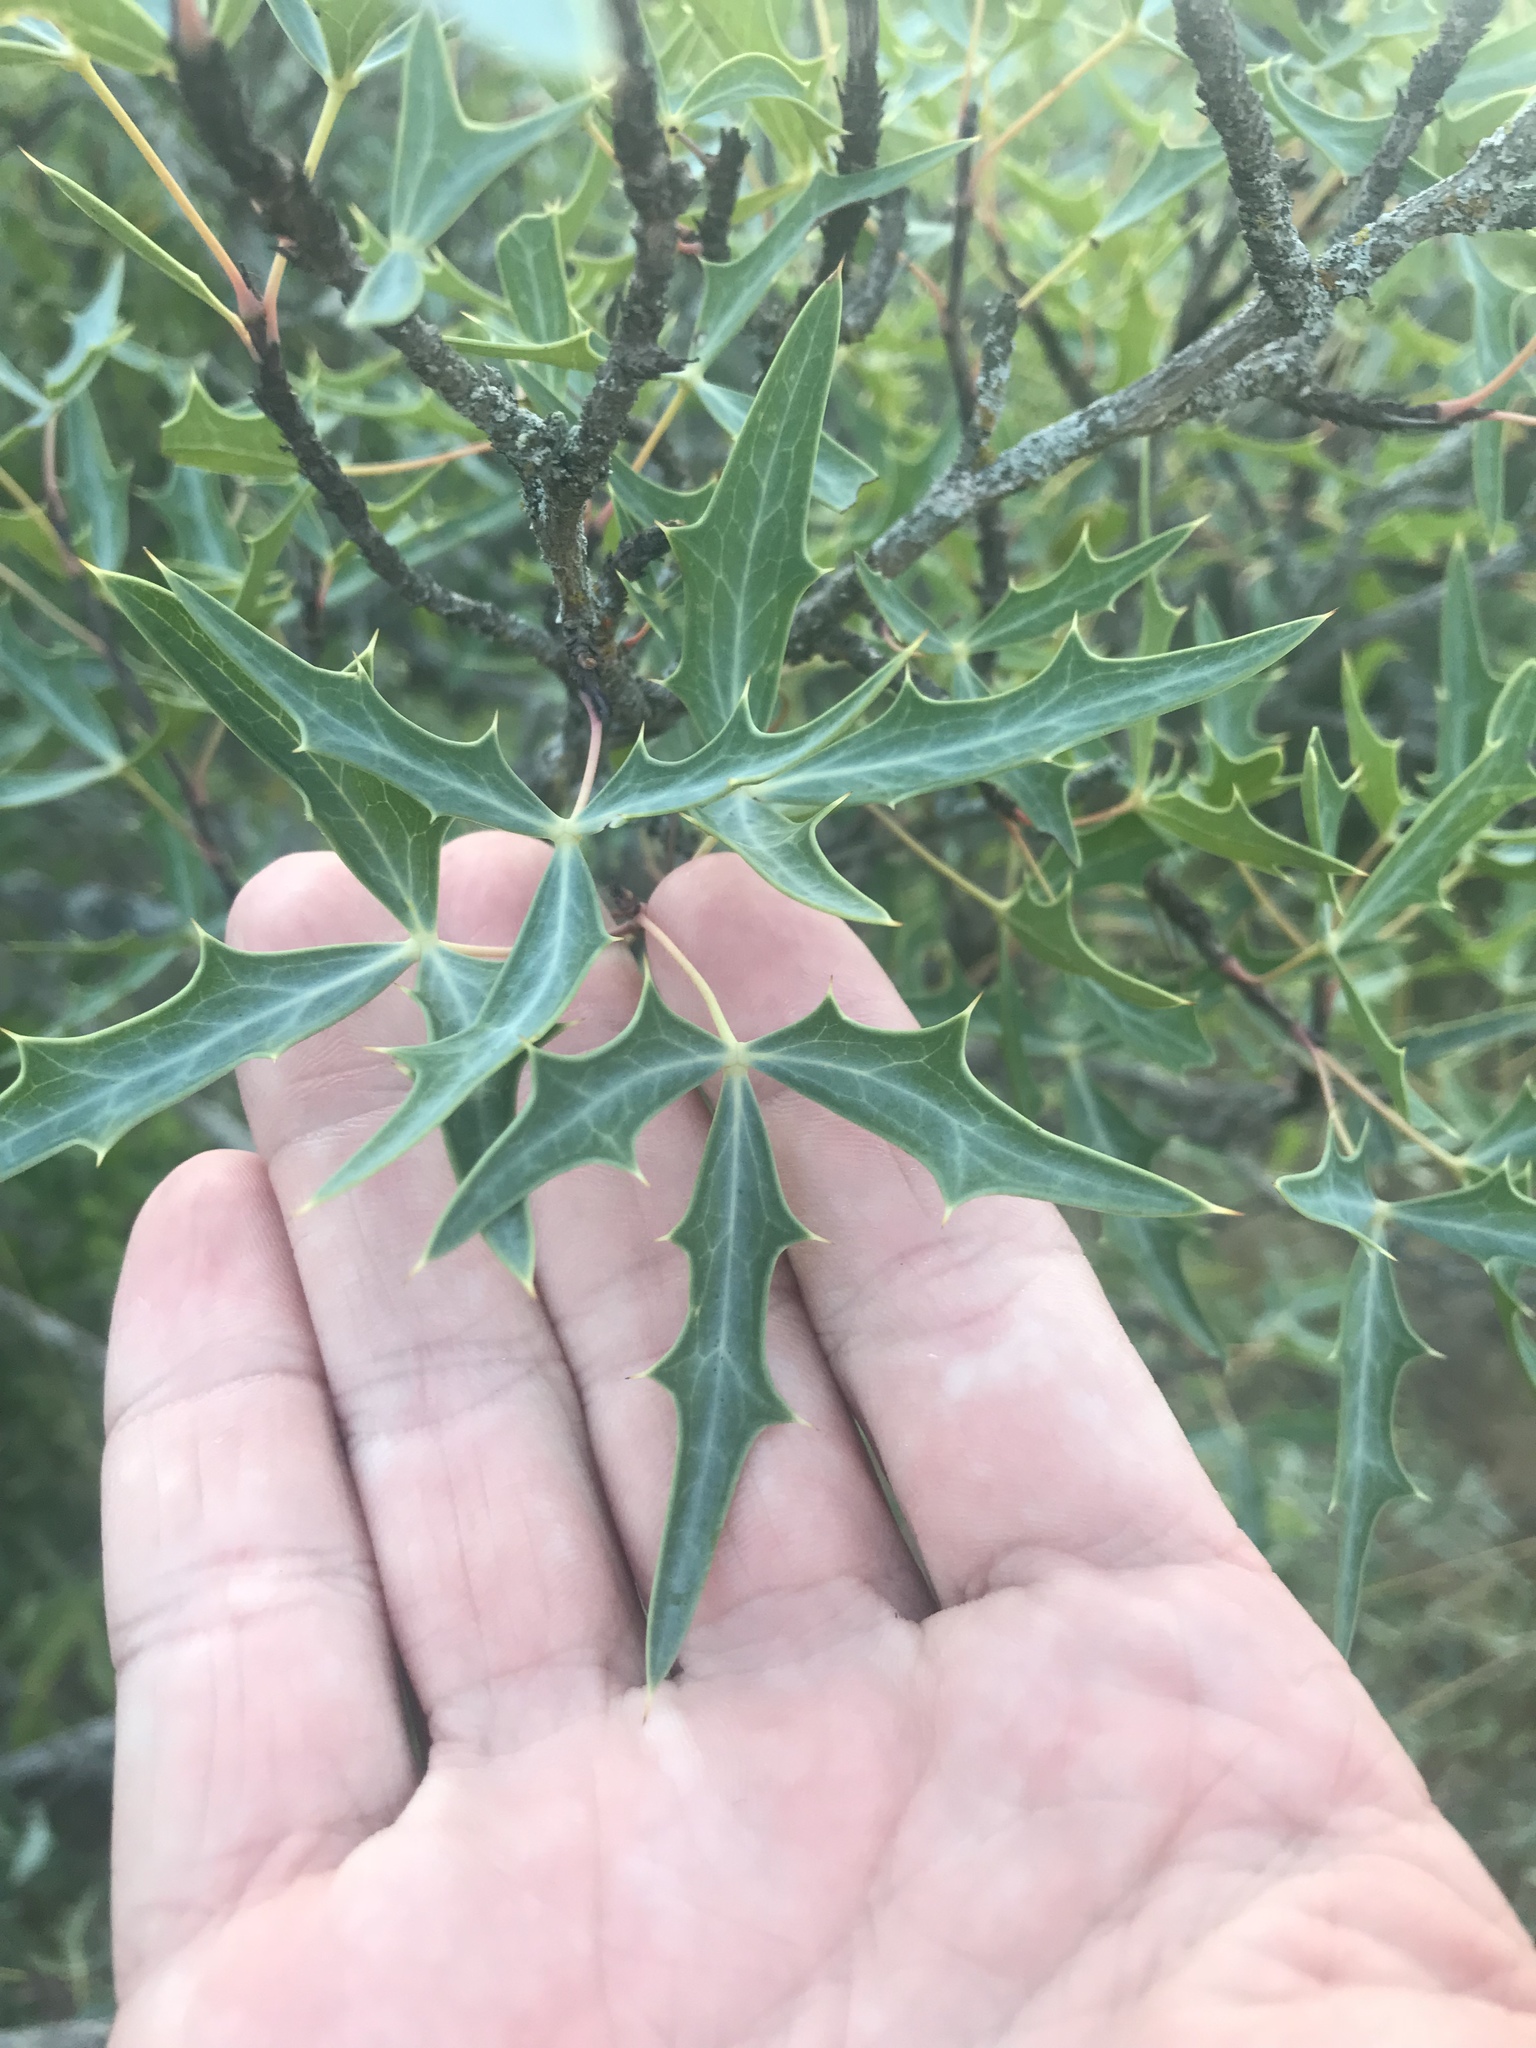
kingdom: Plantae
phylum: Tracheophyta
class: Magnoliopsida
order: Ranunculales
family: Berberidaceae
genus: Alloberberis
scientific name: Alloberberis trifoliolata
